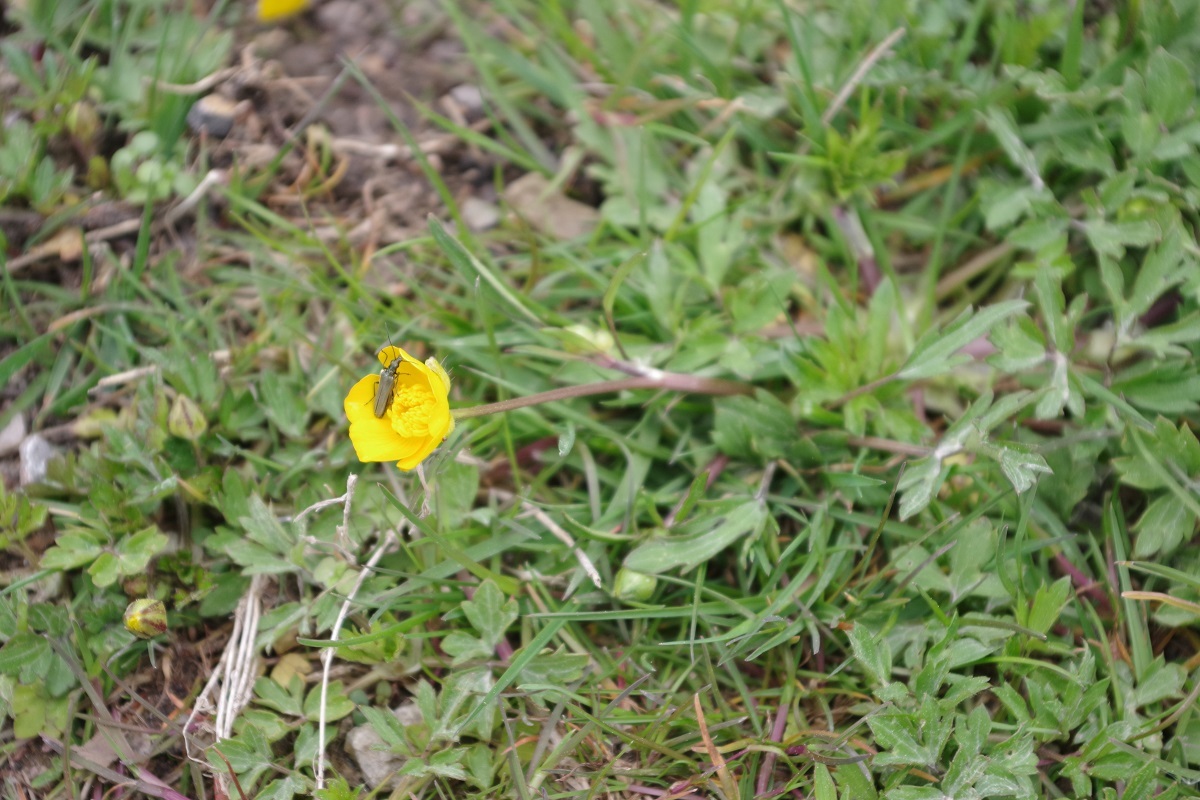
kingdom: Plantae
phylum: Tracheophyta
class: Magnoliopsida
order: Ranunculales
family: Ranunculaceae
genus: Ranunculus
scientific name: Ranunculus repens
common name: Creeping buttercup
